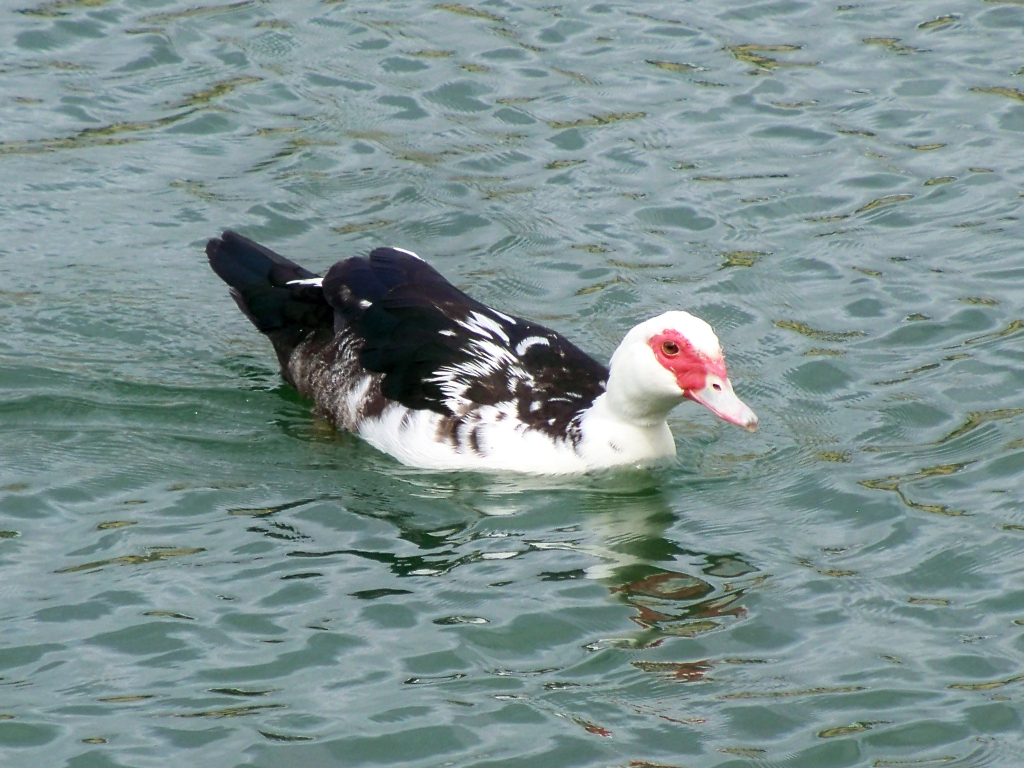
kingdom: Animalia
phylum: Chordata
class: Aves
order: Anseriformes
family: Anatidae
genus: Cairina
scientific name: Cairina moschata
